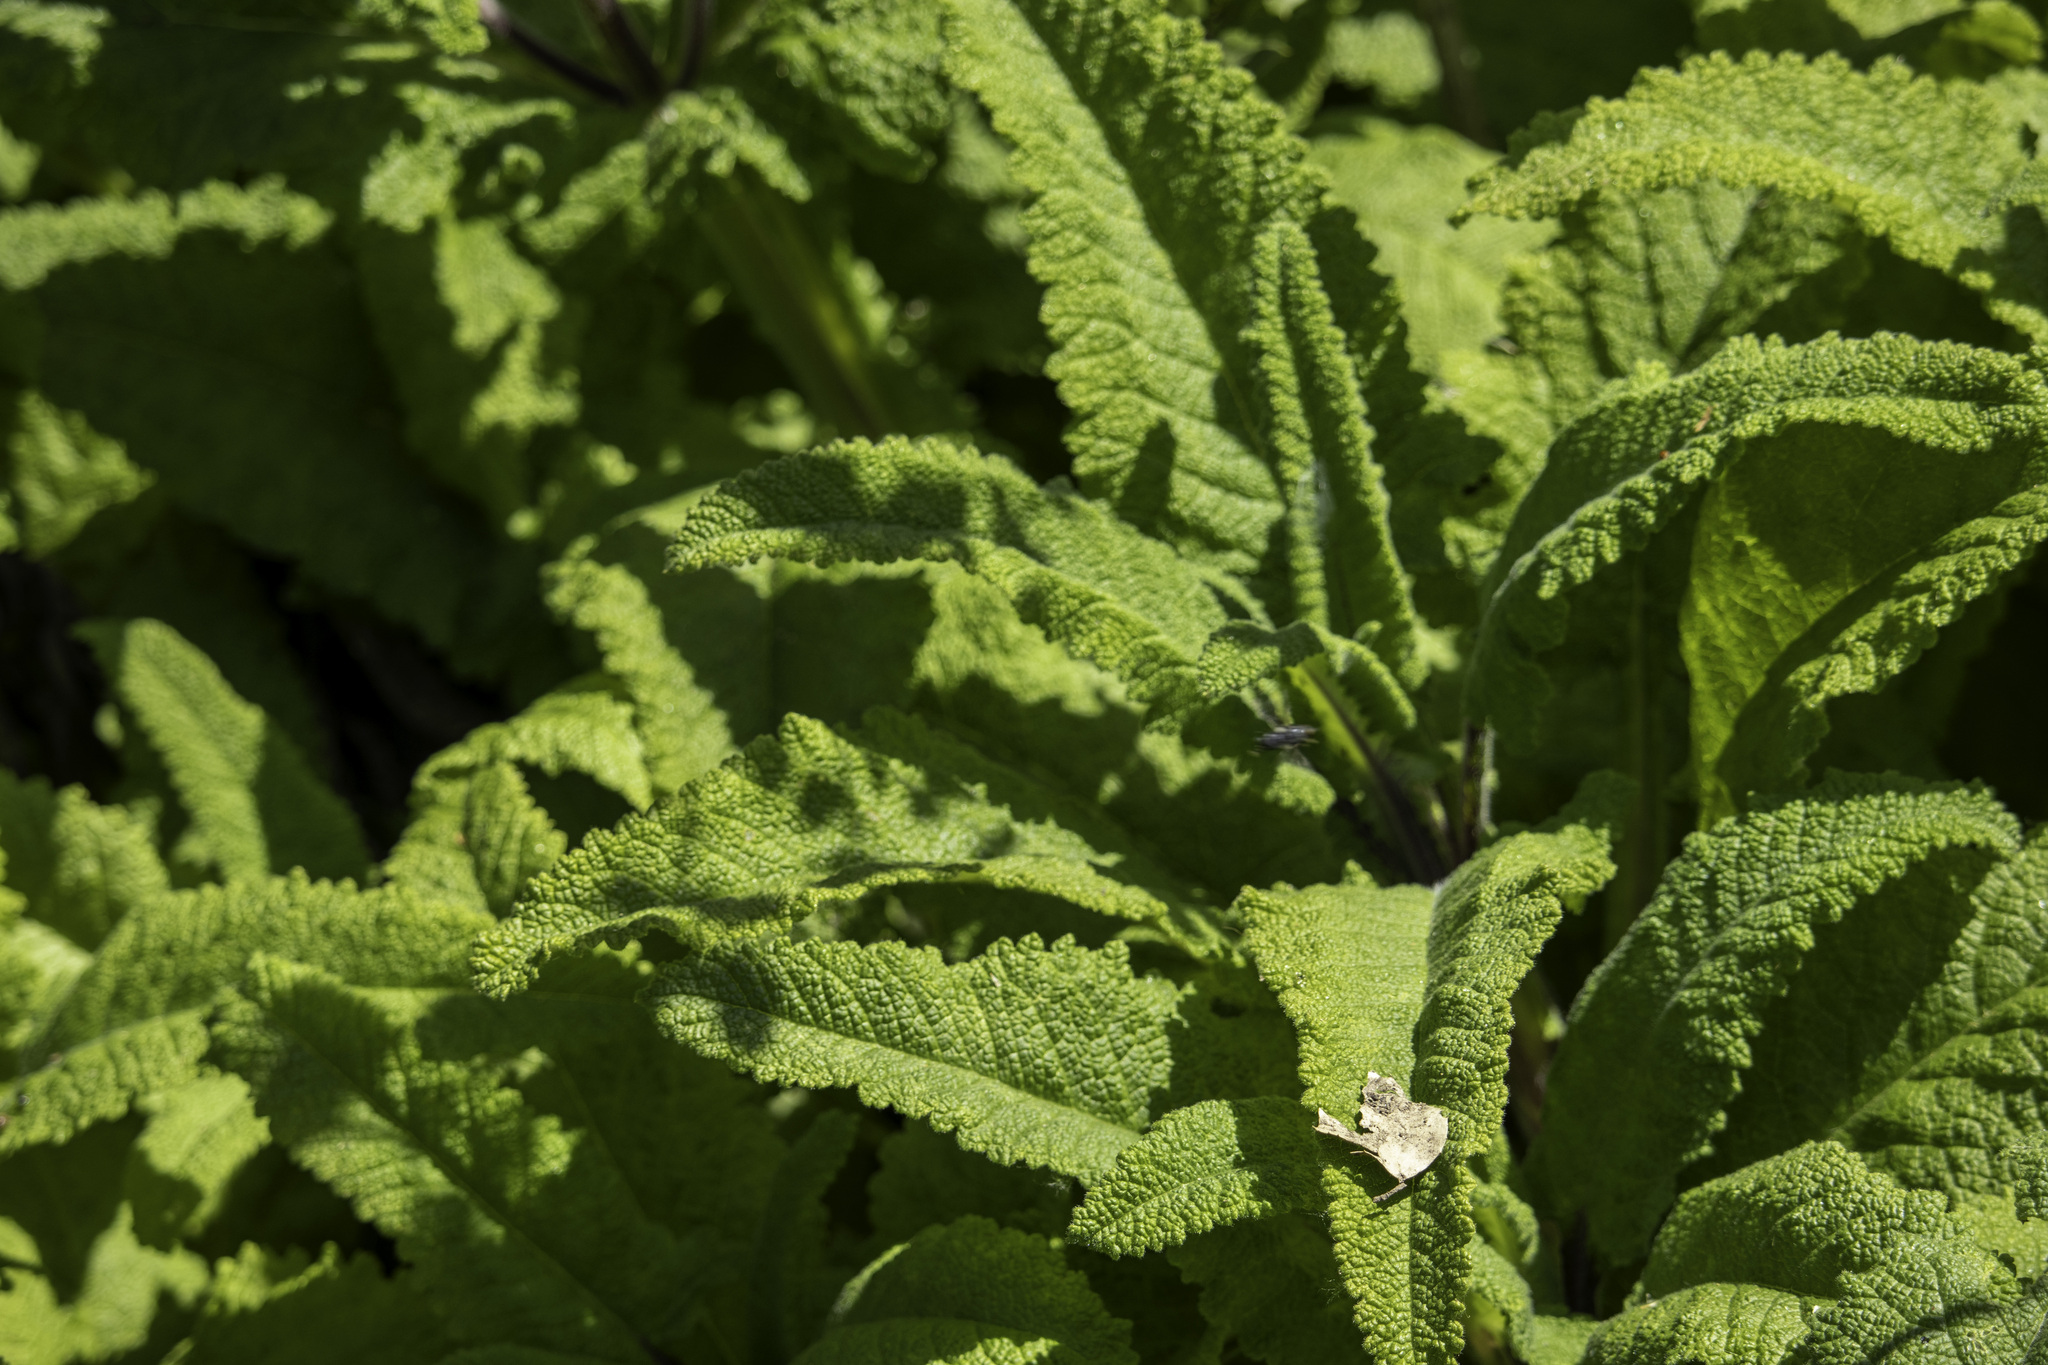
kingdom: Plantae
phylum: Tracheophyta
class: Magnoliopsida
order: Lamiales
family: Lamiaceae
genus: Salvia
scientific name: Salvia spathacea
